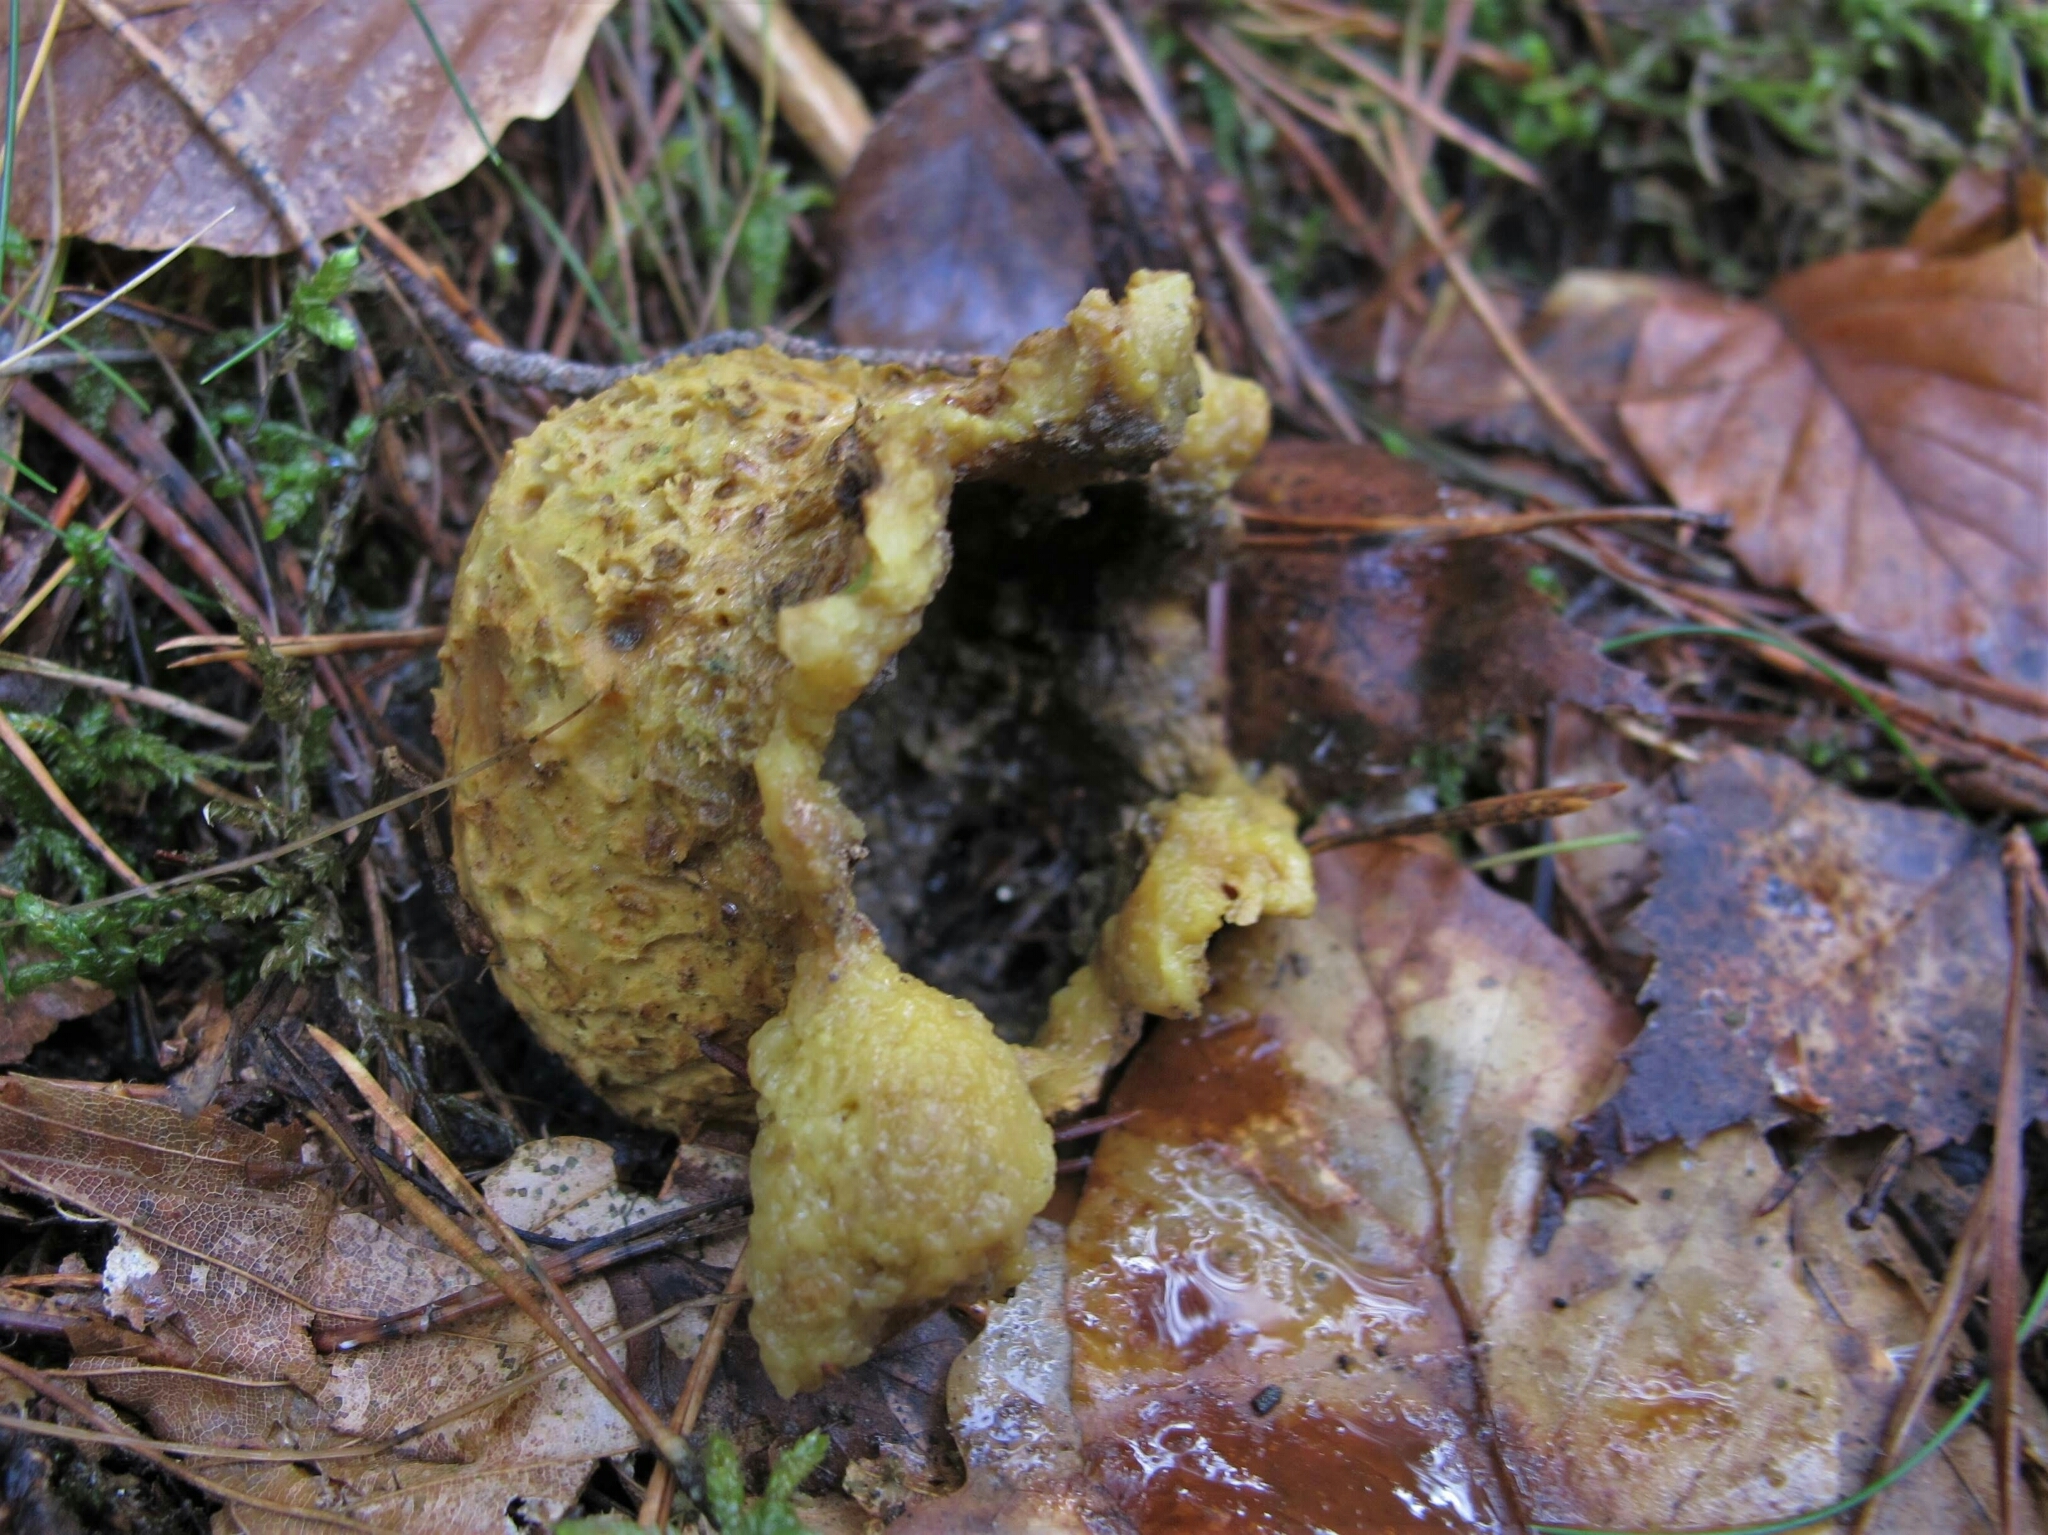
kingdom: Fungi
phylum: Basidiomycota
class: Agaricomycetes
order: Boletales
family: Sclerodermataceae
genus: Scleroderma
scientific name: Scleroderma citrinum
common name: Common earthball
